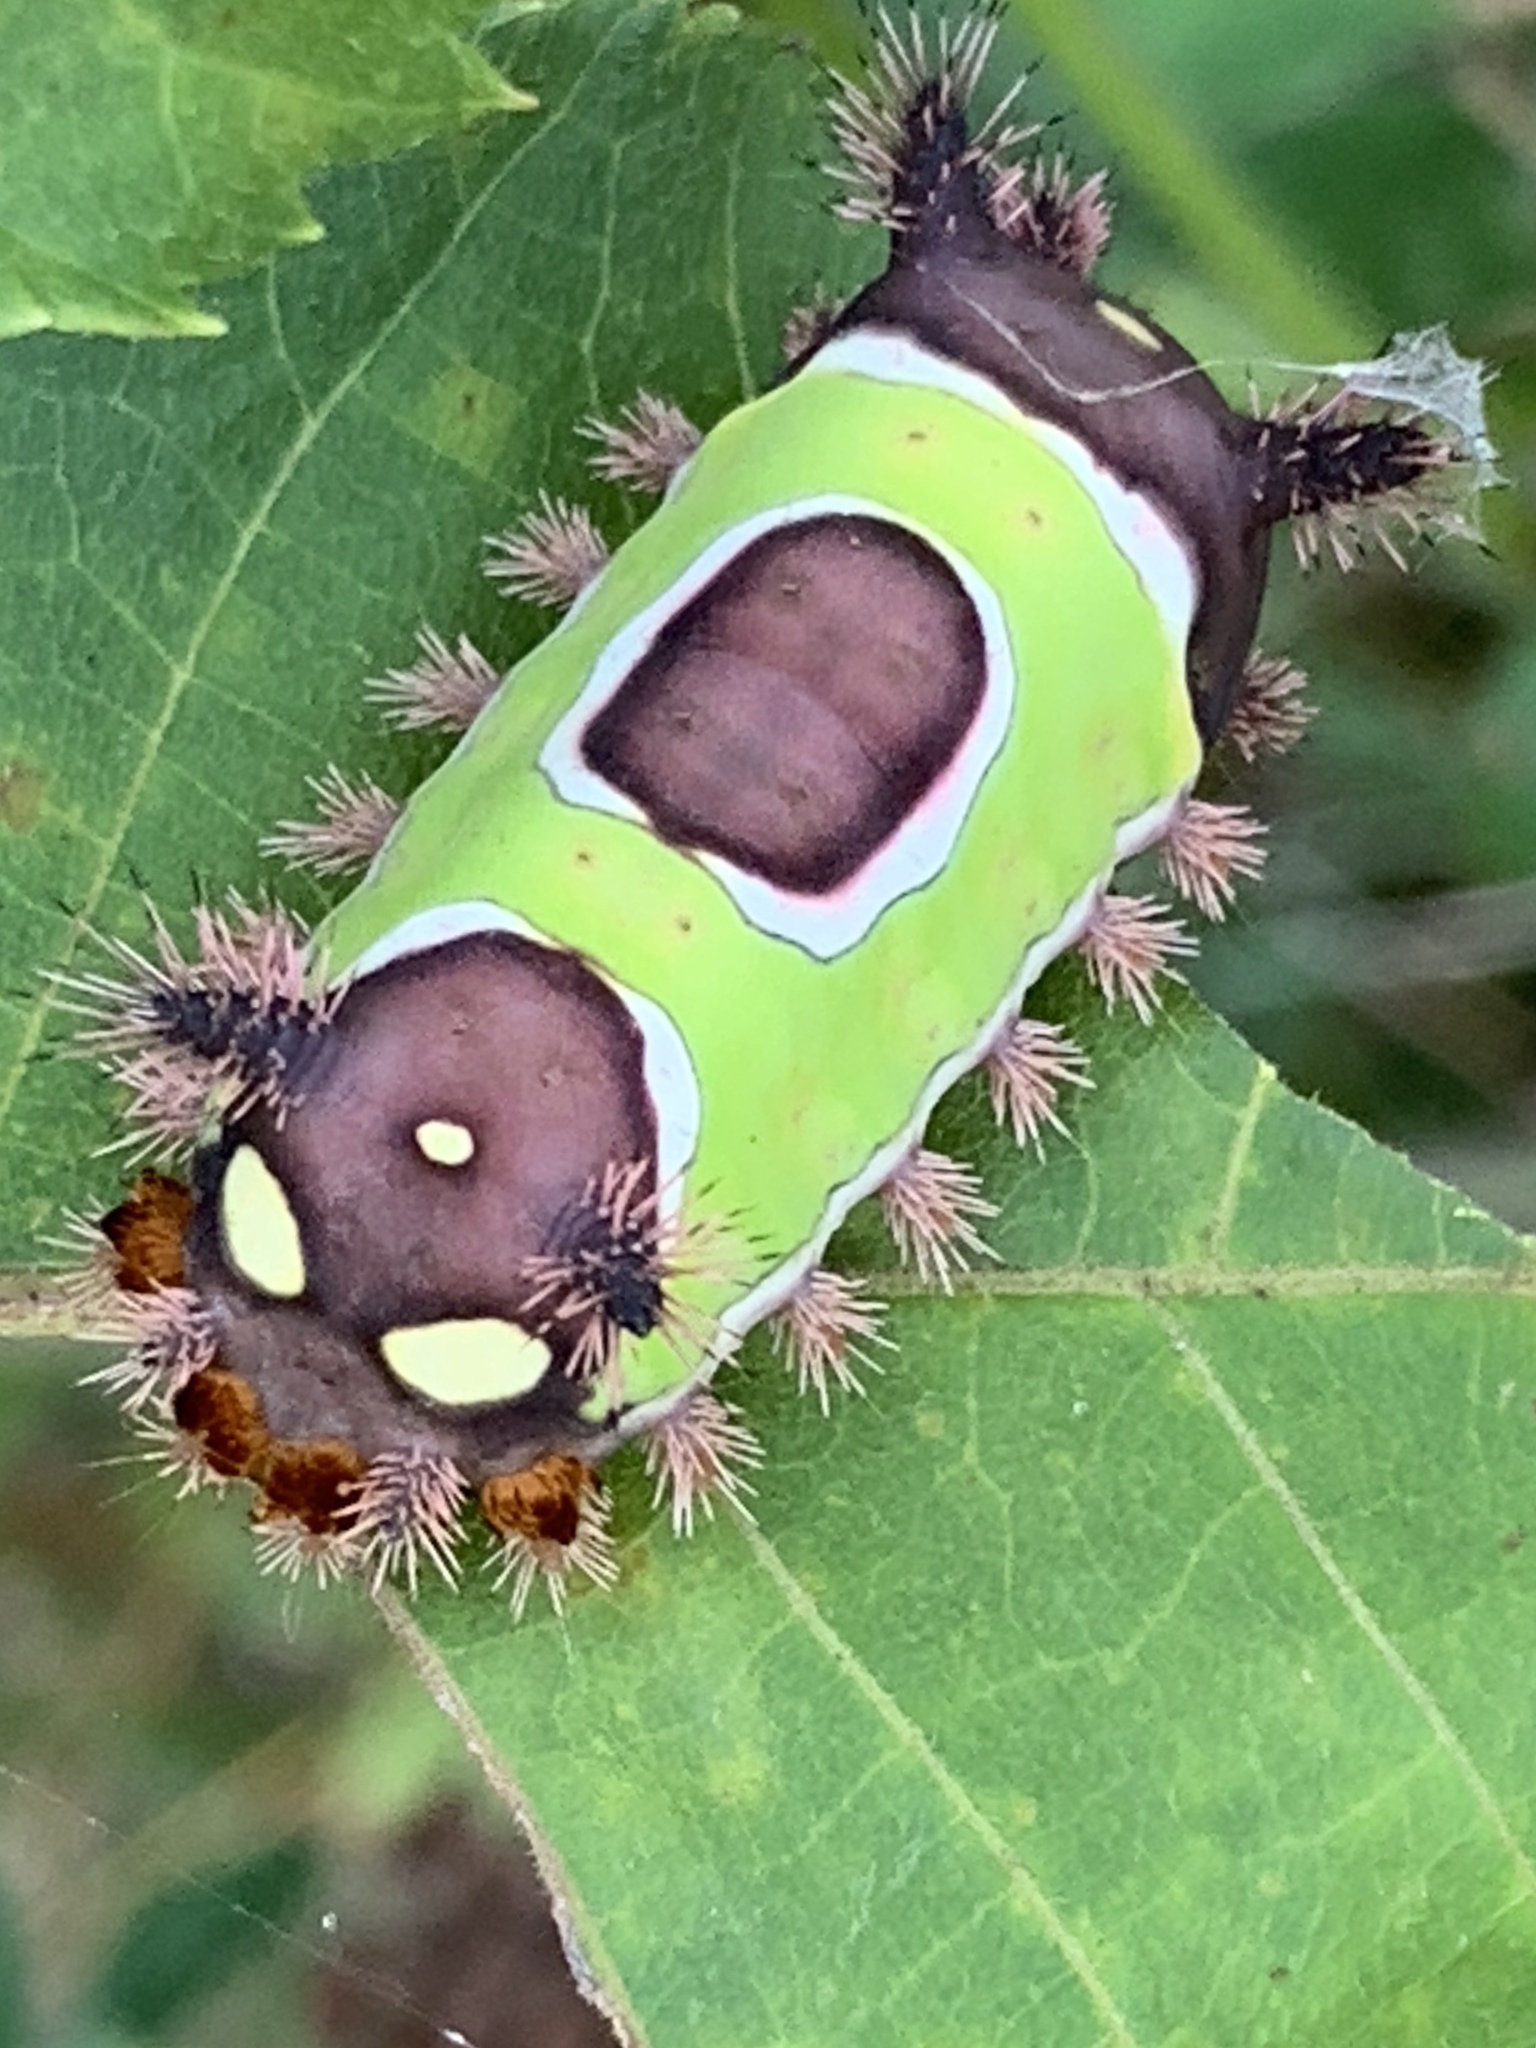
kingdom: Animalia
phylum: Arthropoda
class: Insecta
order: Lepidoptera
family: Limacodidae
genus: Acharia
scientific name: Acharia stimulea
